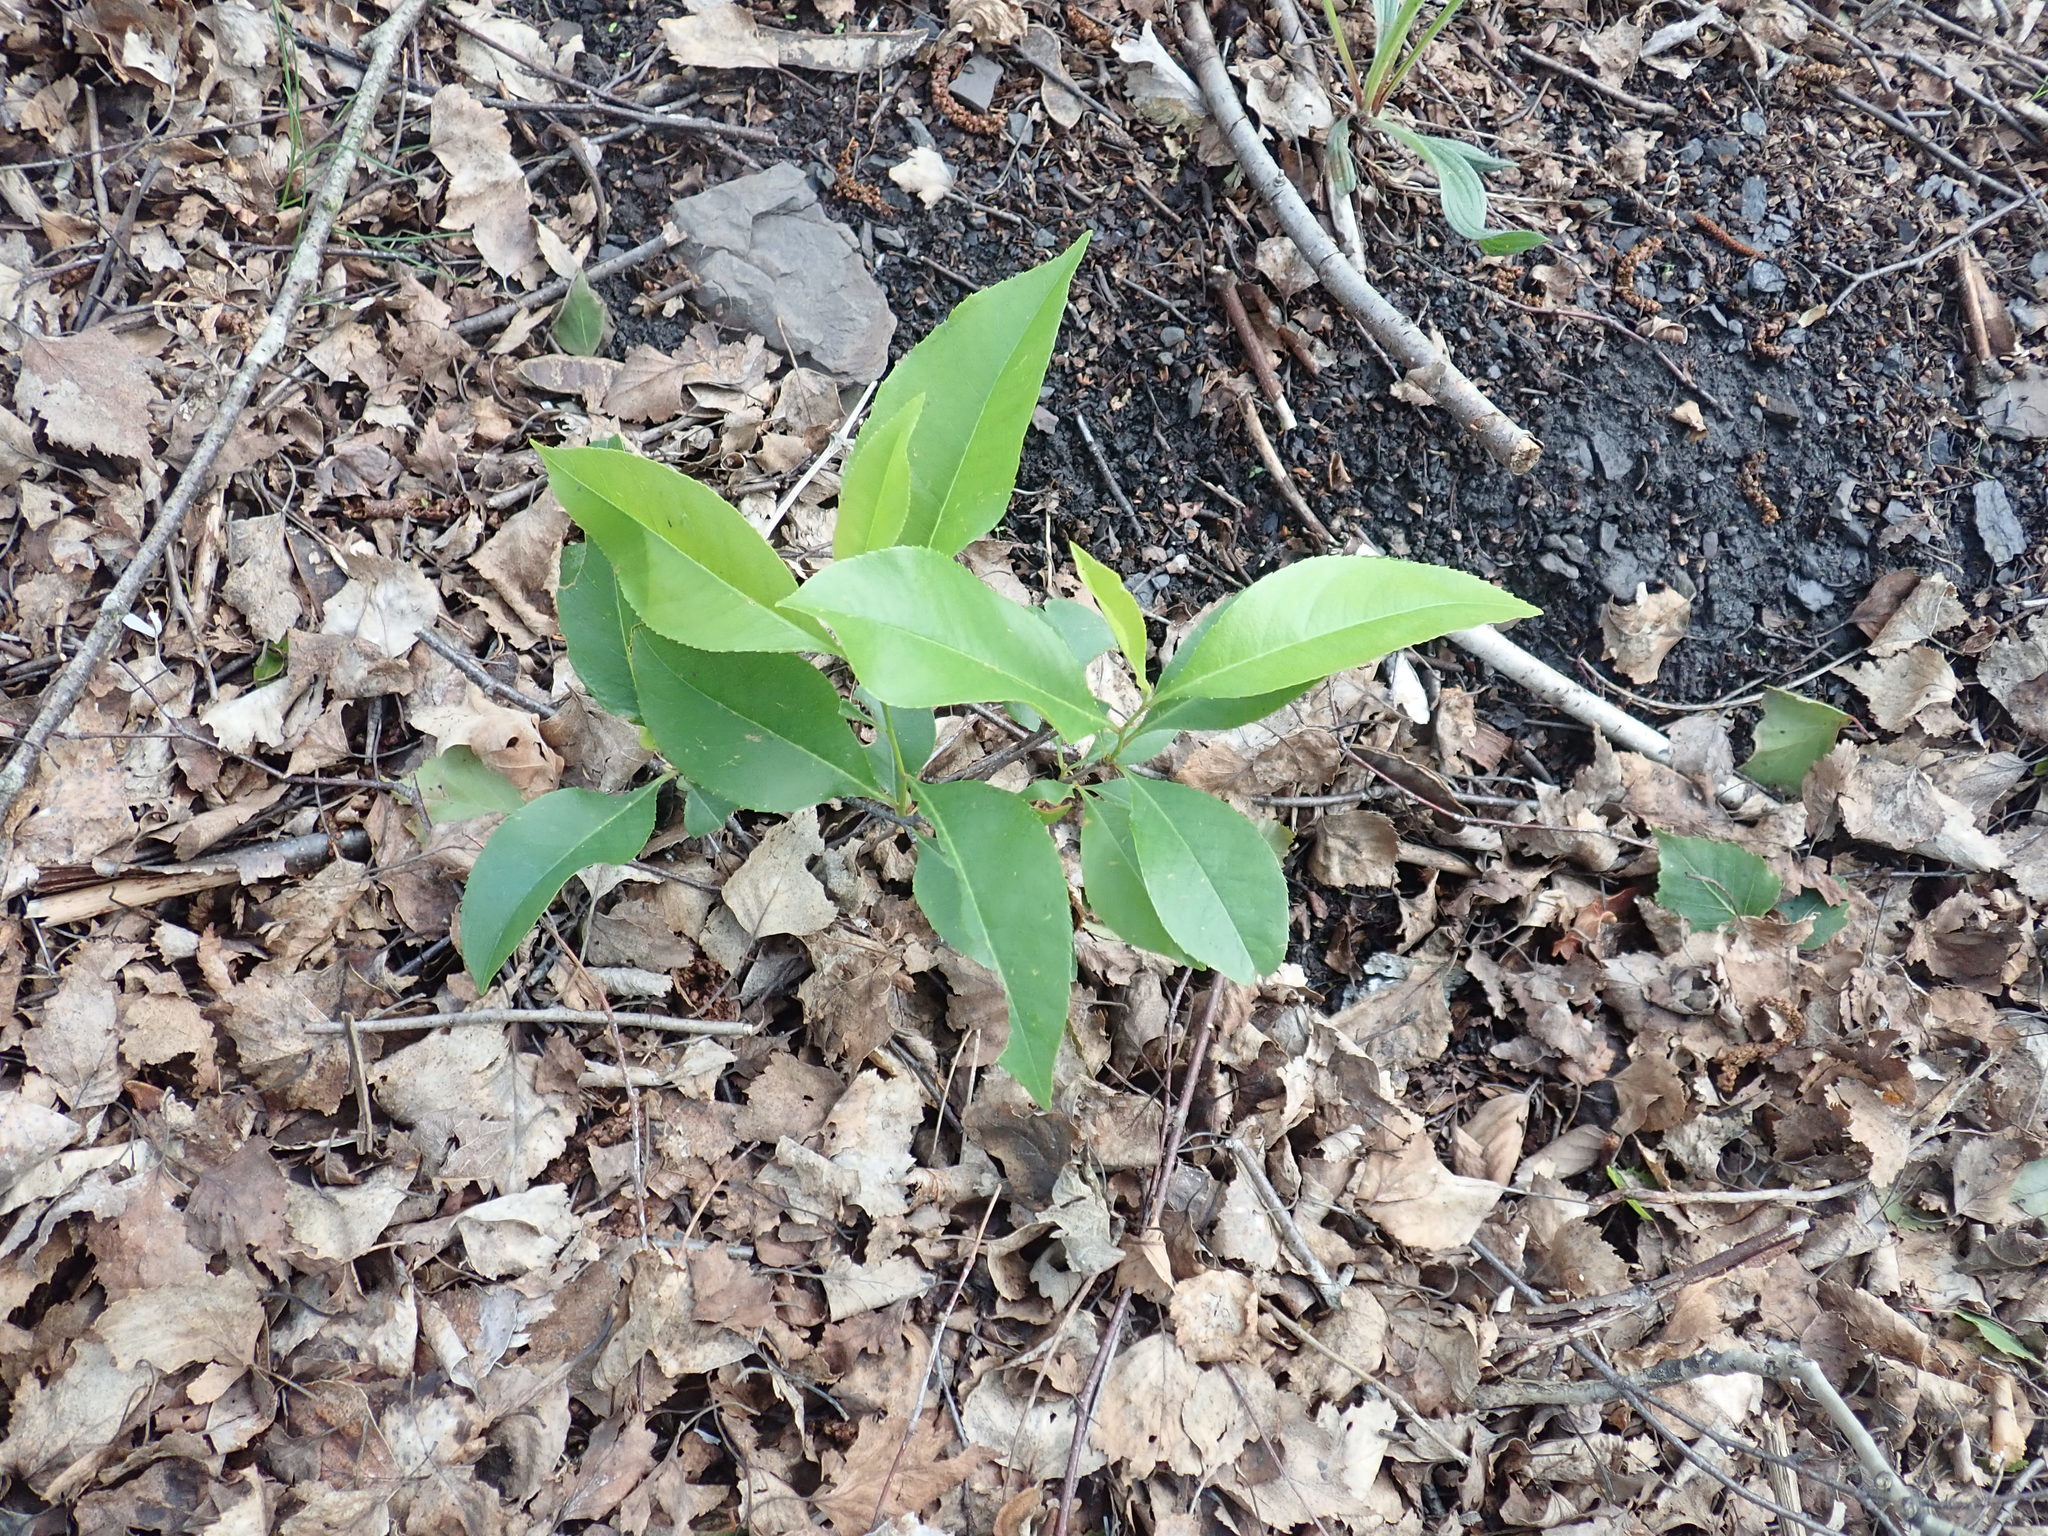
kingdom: Plantae
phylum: Tracheophyta
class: Magnoliopsida
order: Rosales
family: Rosaceae
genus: Prunus
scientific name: Prunus serotina
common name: Black cherry
